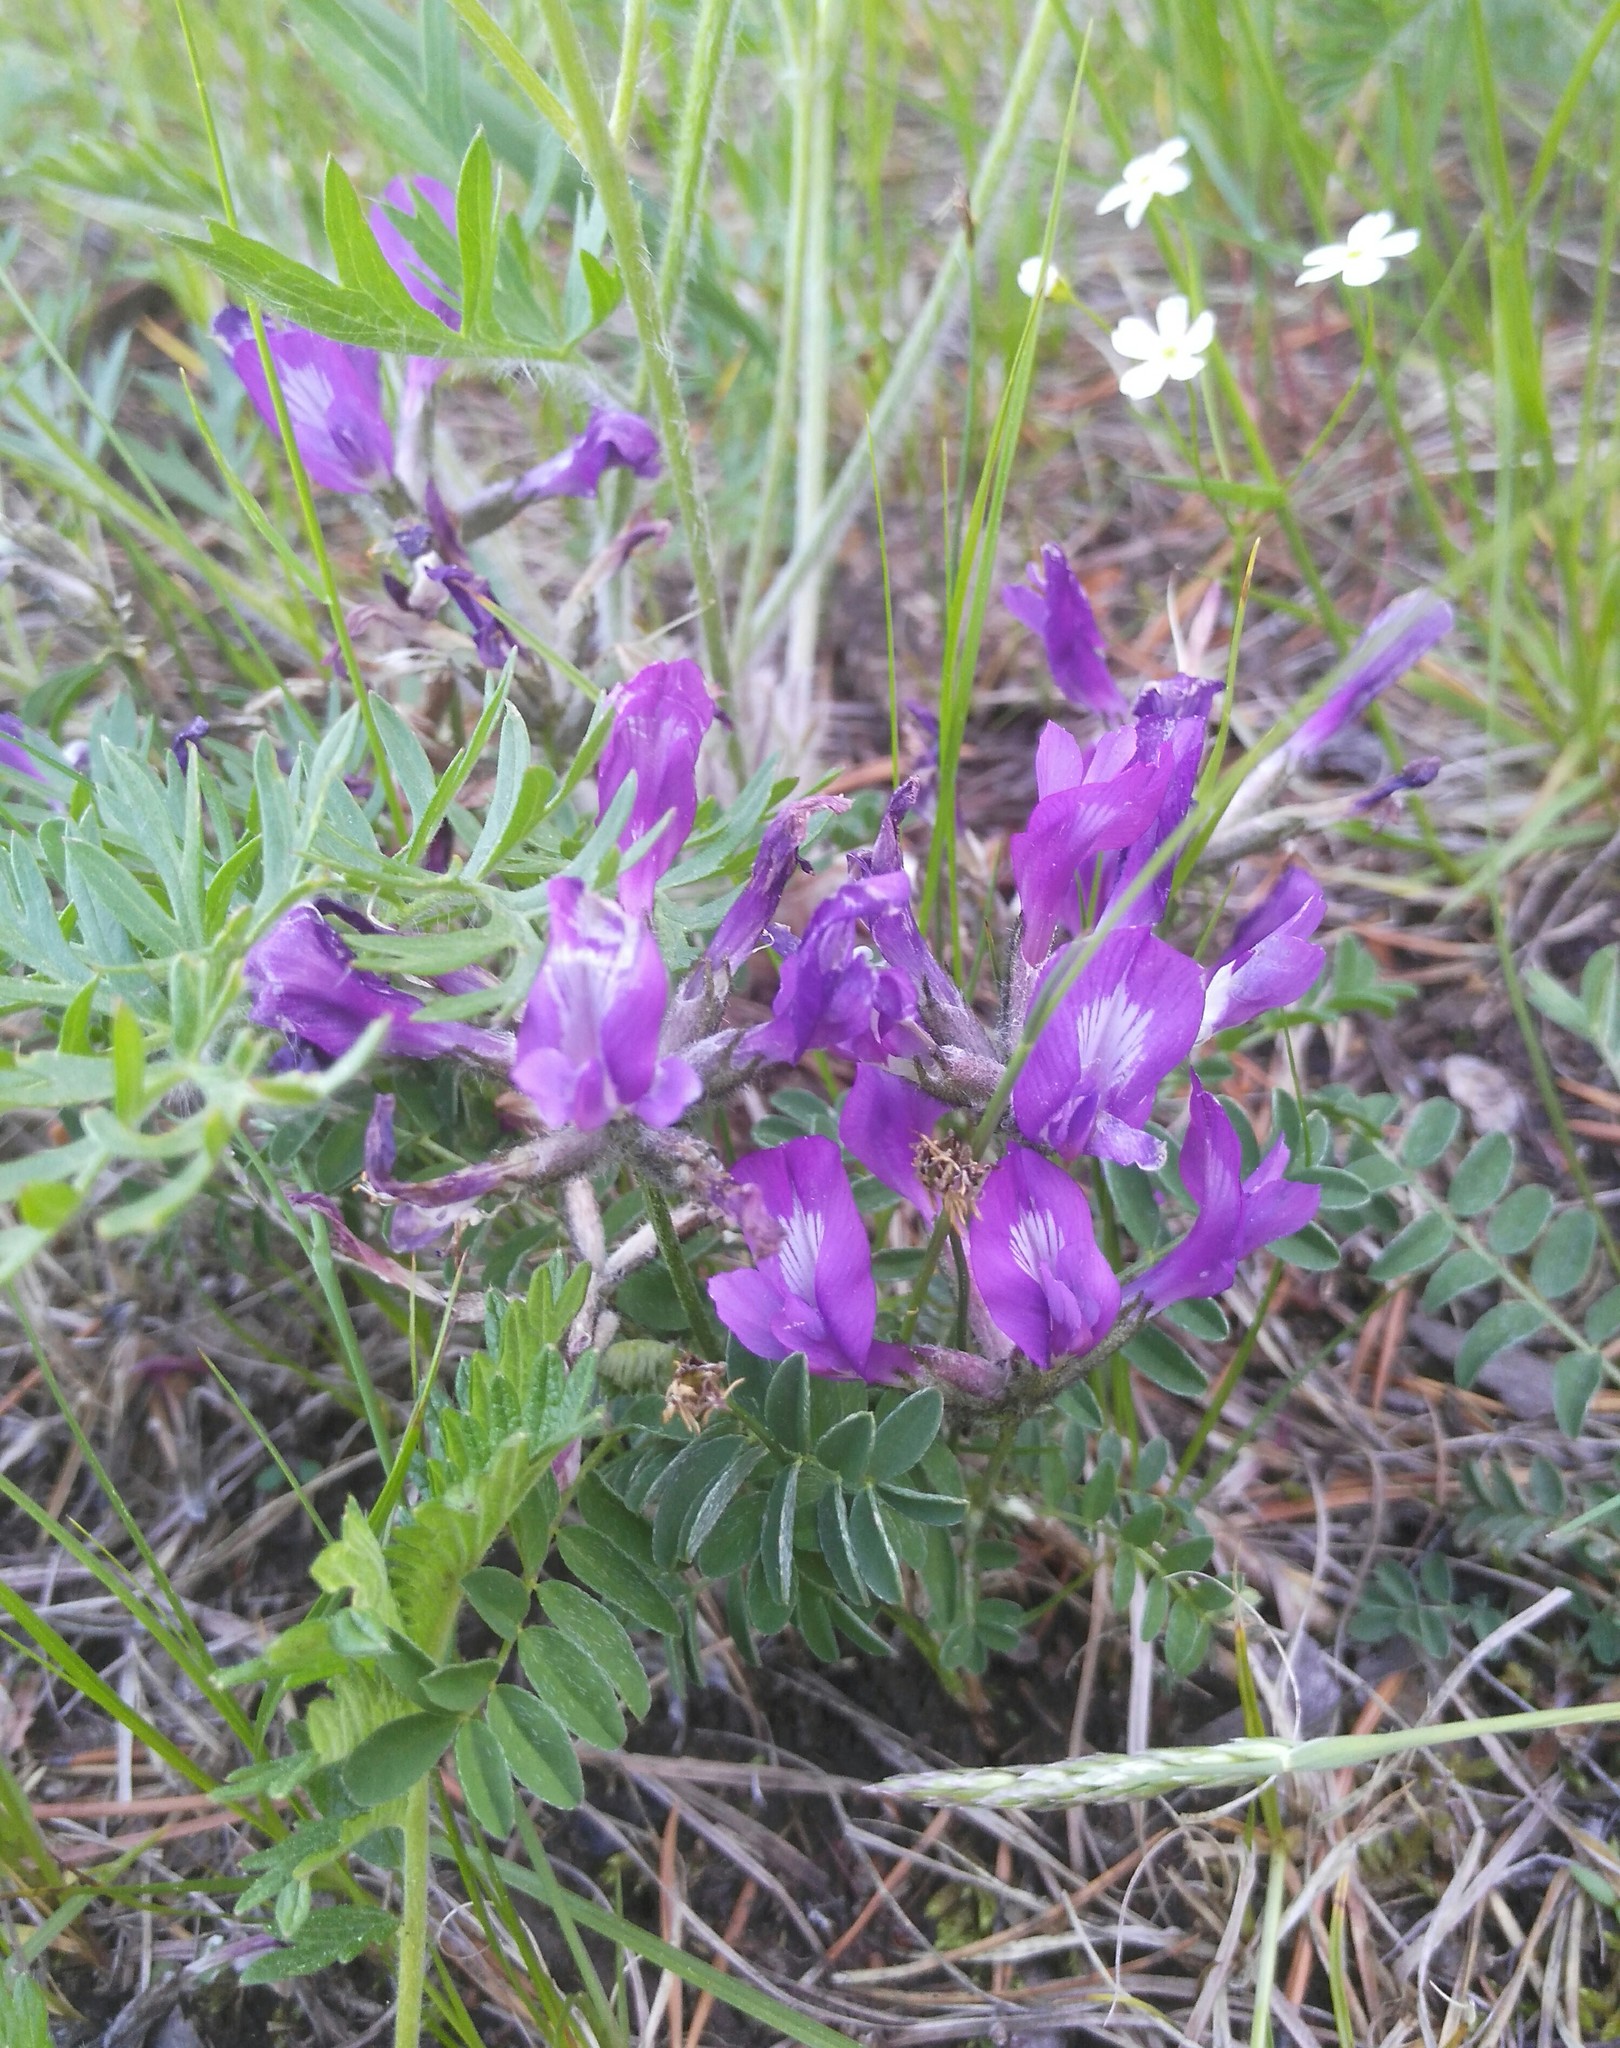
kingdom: Plantae
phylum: Tracheophyta
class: Magnoliopsida
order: Fabales
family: Fabaceae
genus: Astragalus
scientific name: Astragalus syriacus
